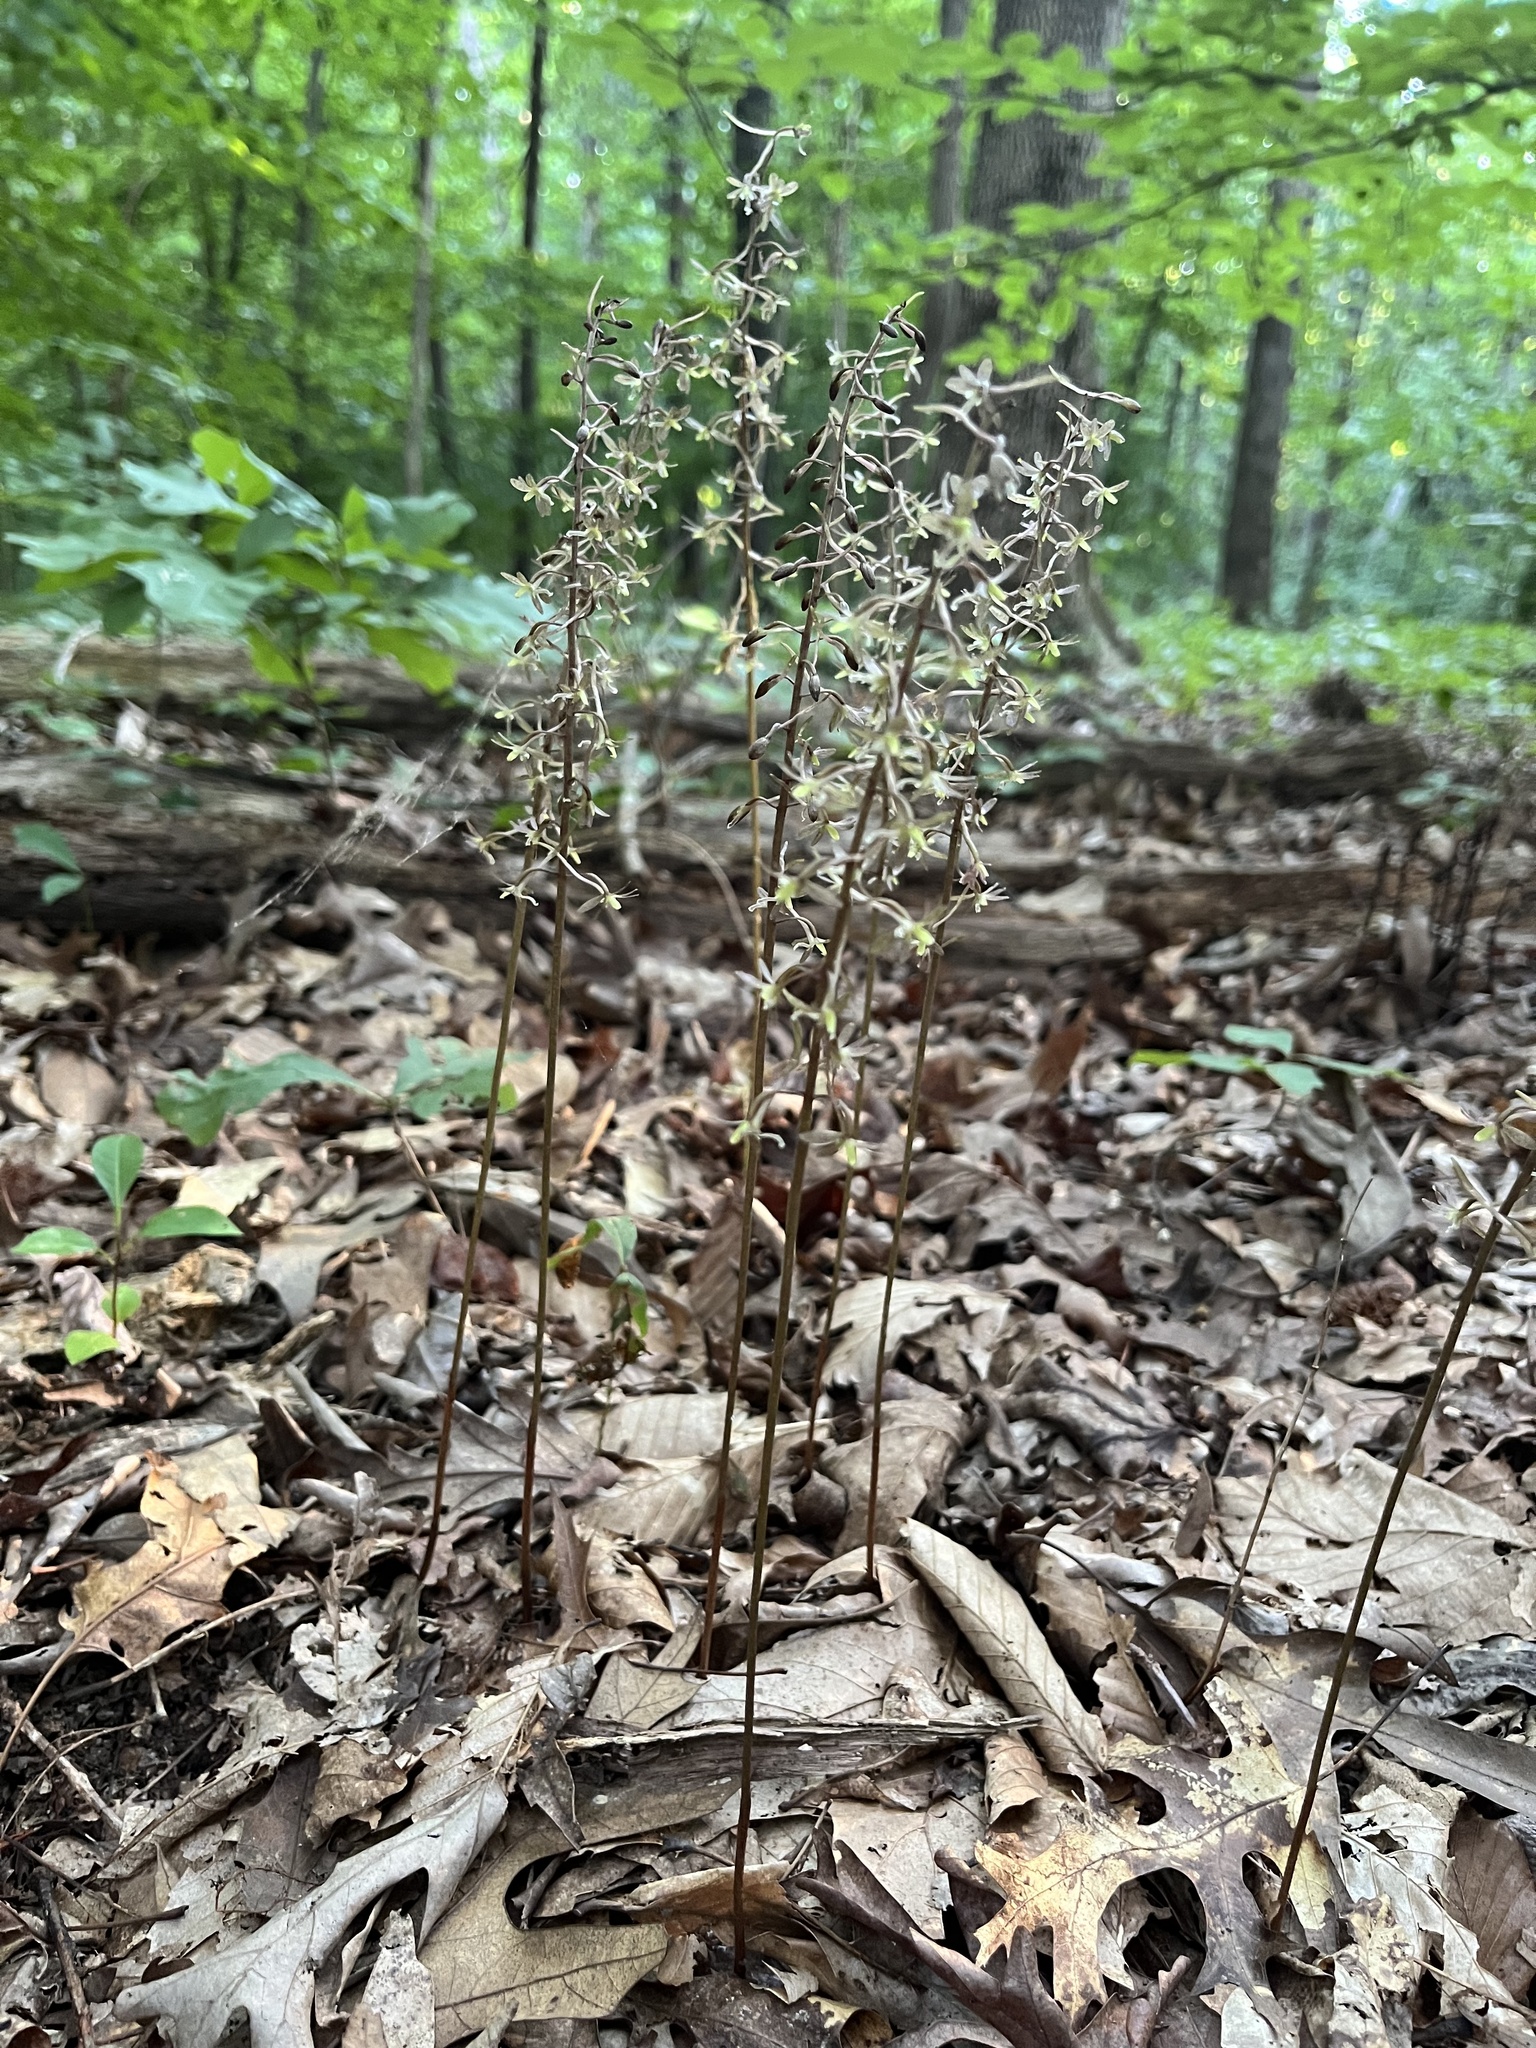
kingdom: Plantae
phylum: Tracheophyta
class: Liliopsida
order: Asparagales
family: Orchidaceae
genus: Tipularia
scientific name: Tipularia discolor
